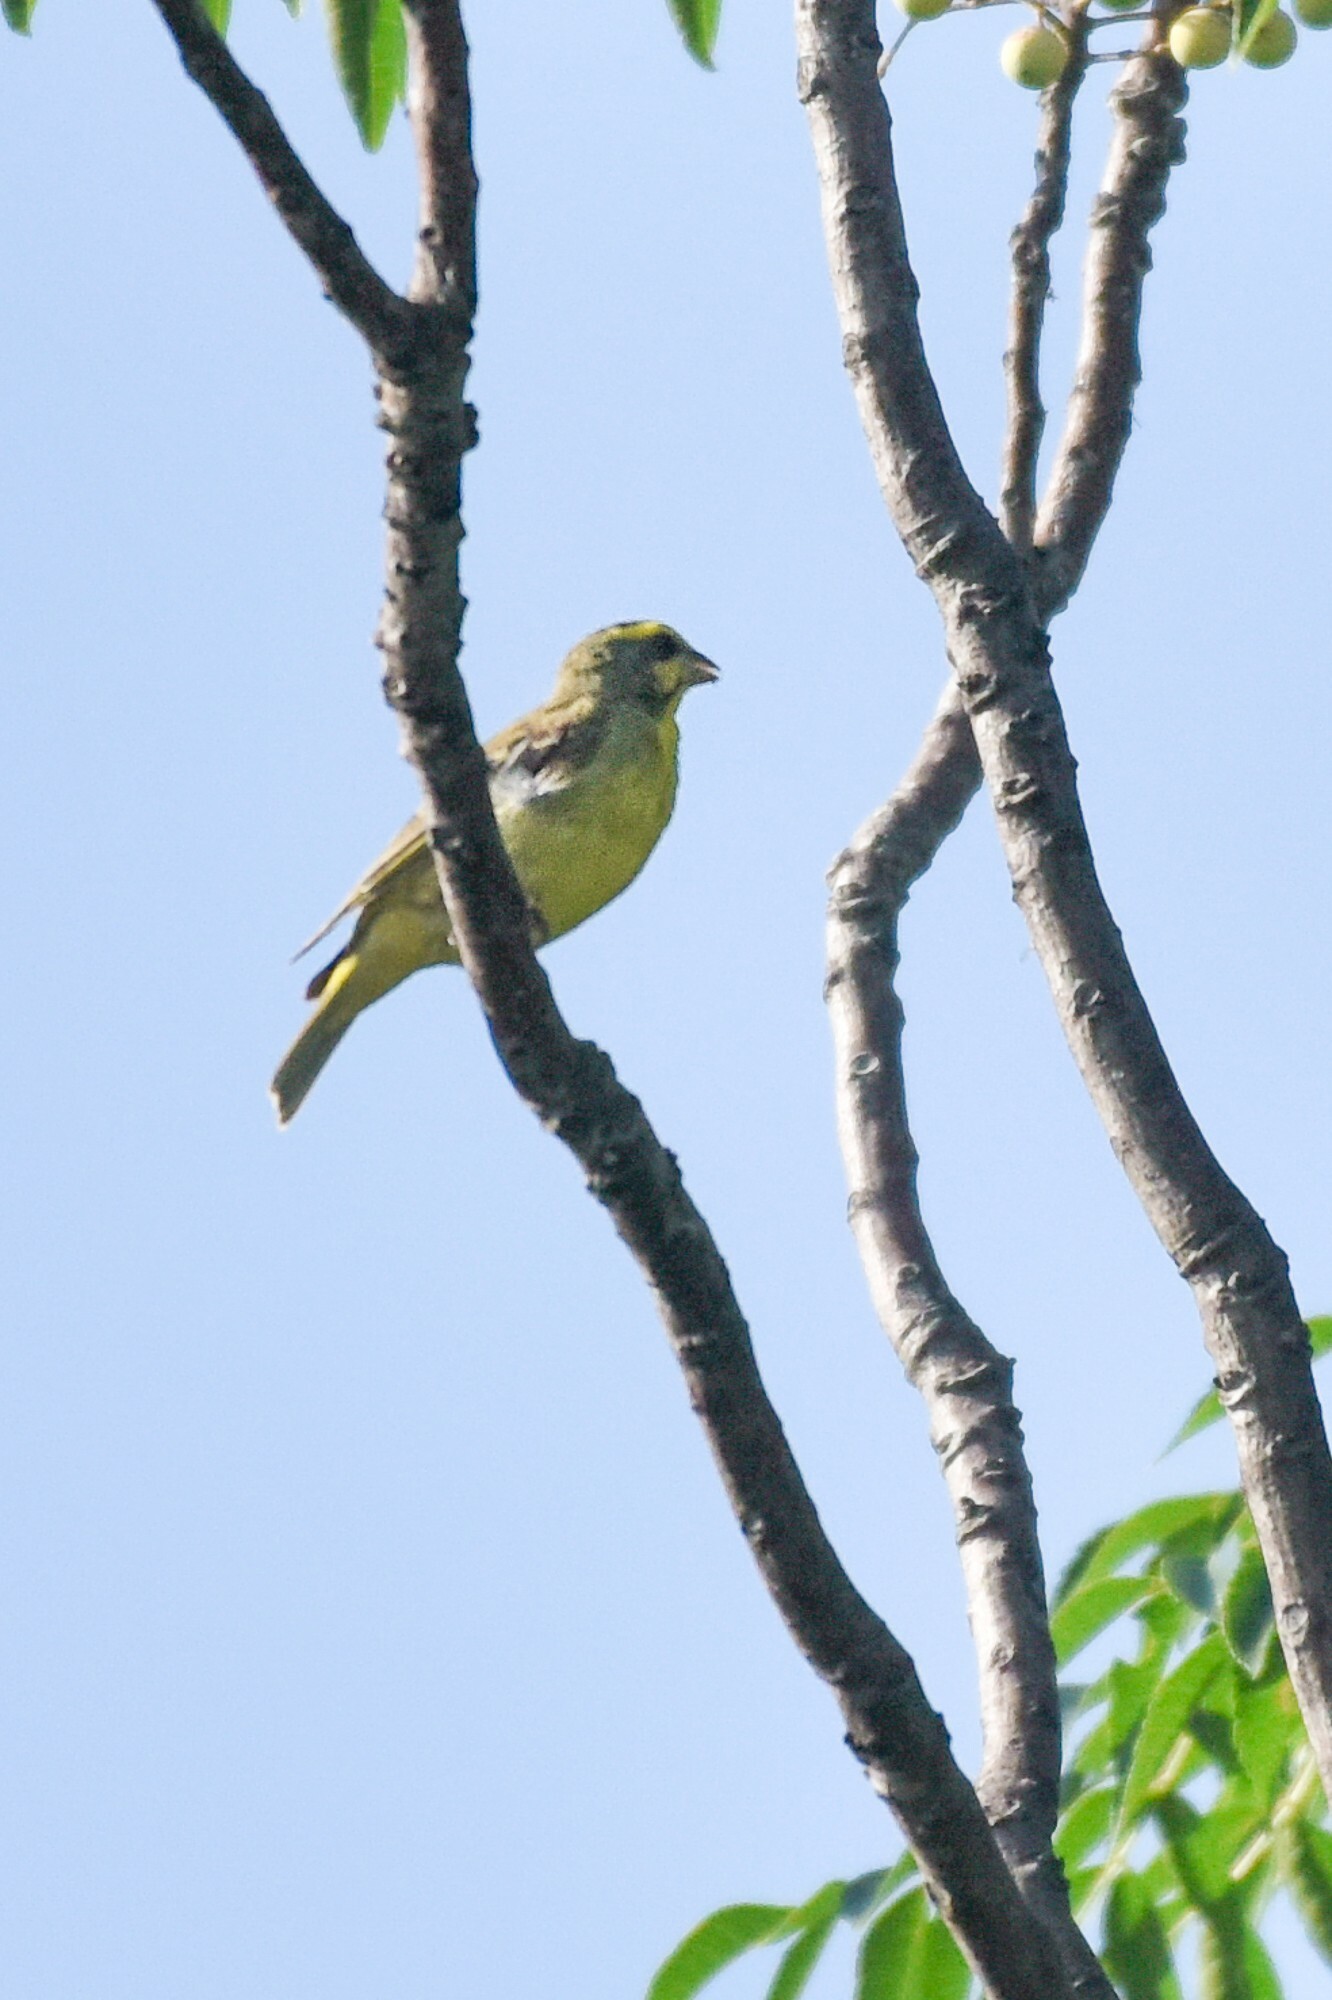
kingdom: Animalia
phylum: Chordata
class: Aves
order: Passeriformes
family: Fringillidae
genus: Crithagra
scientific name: Crithagra mozambica
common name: Yellow-fronted canary
